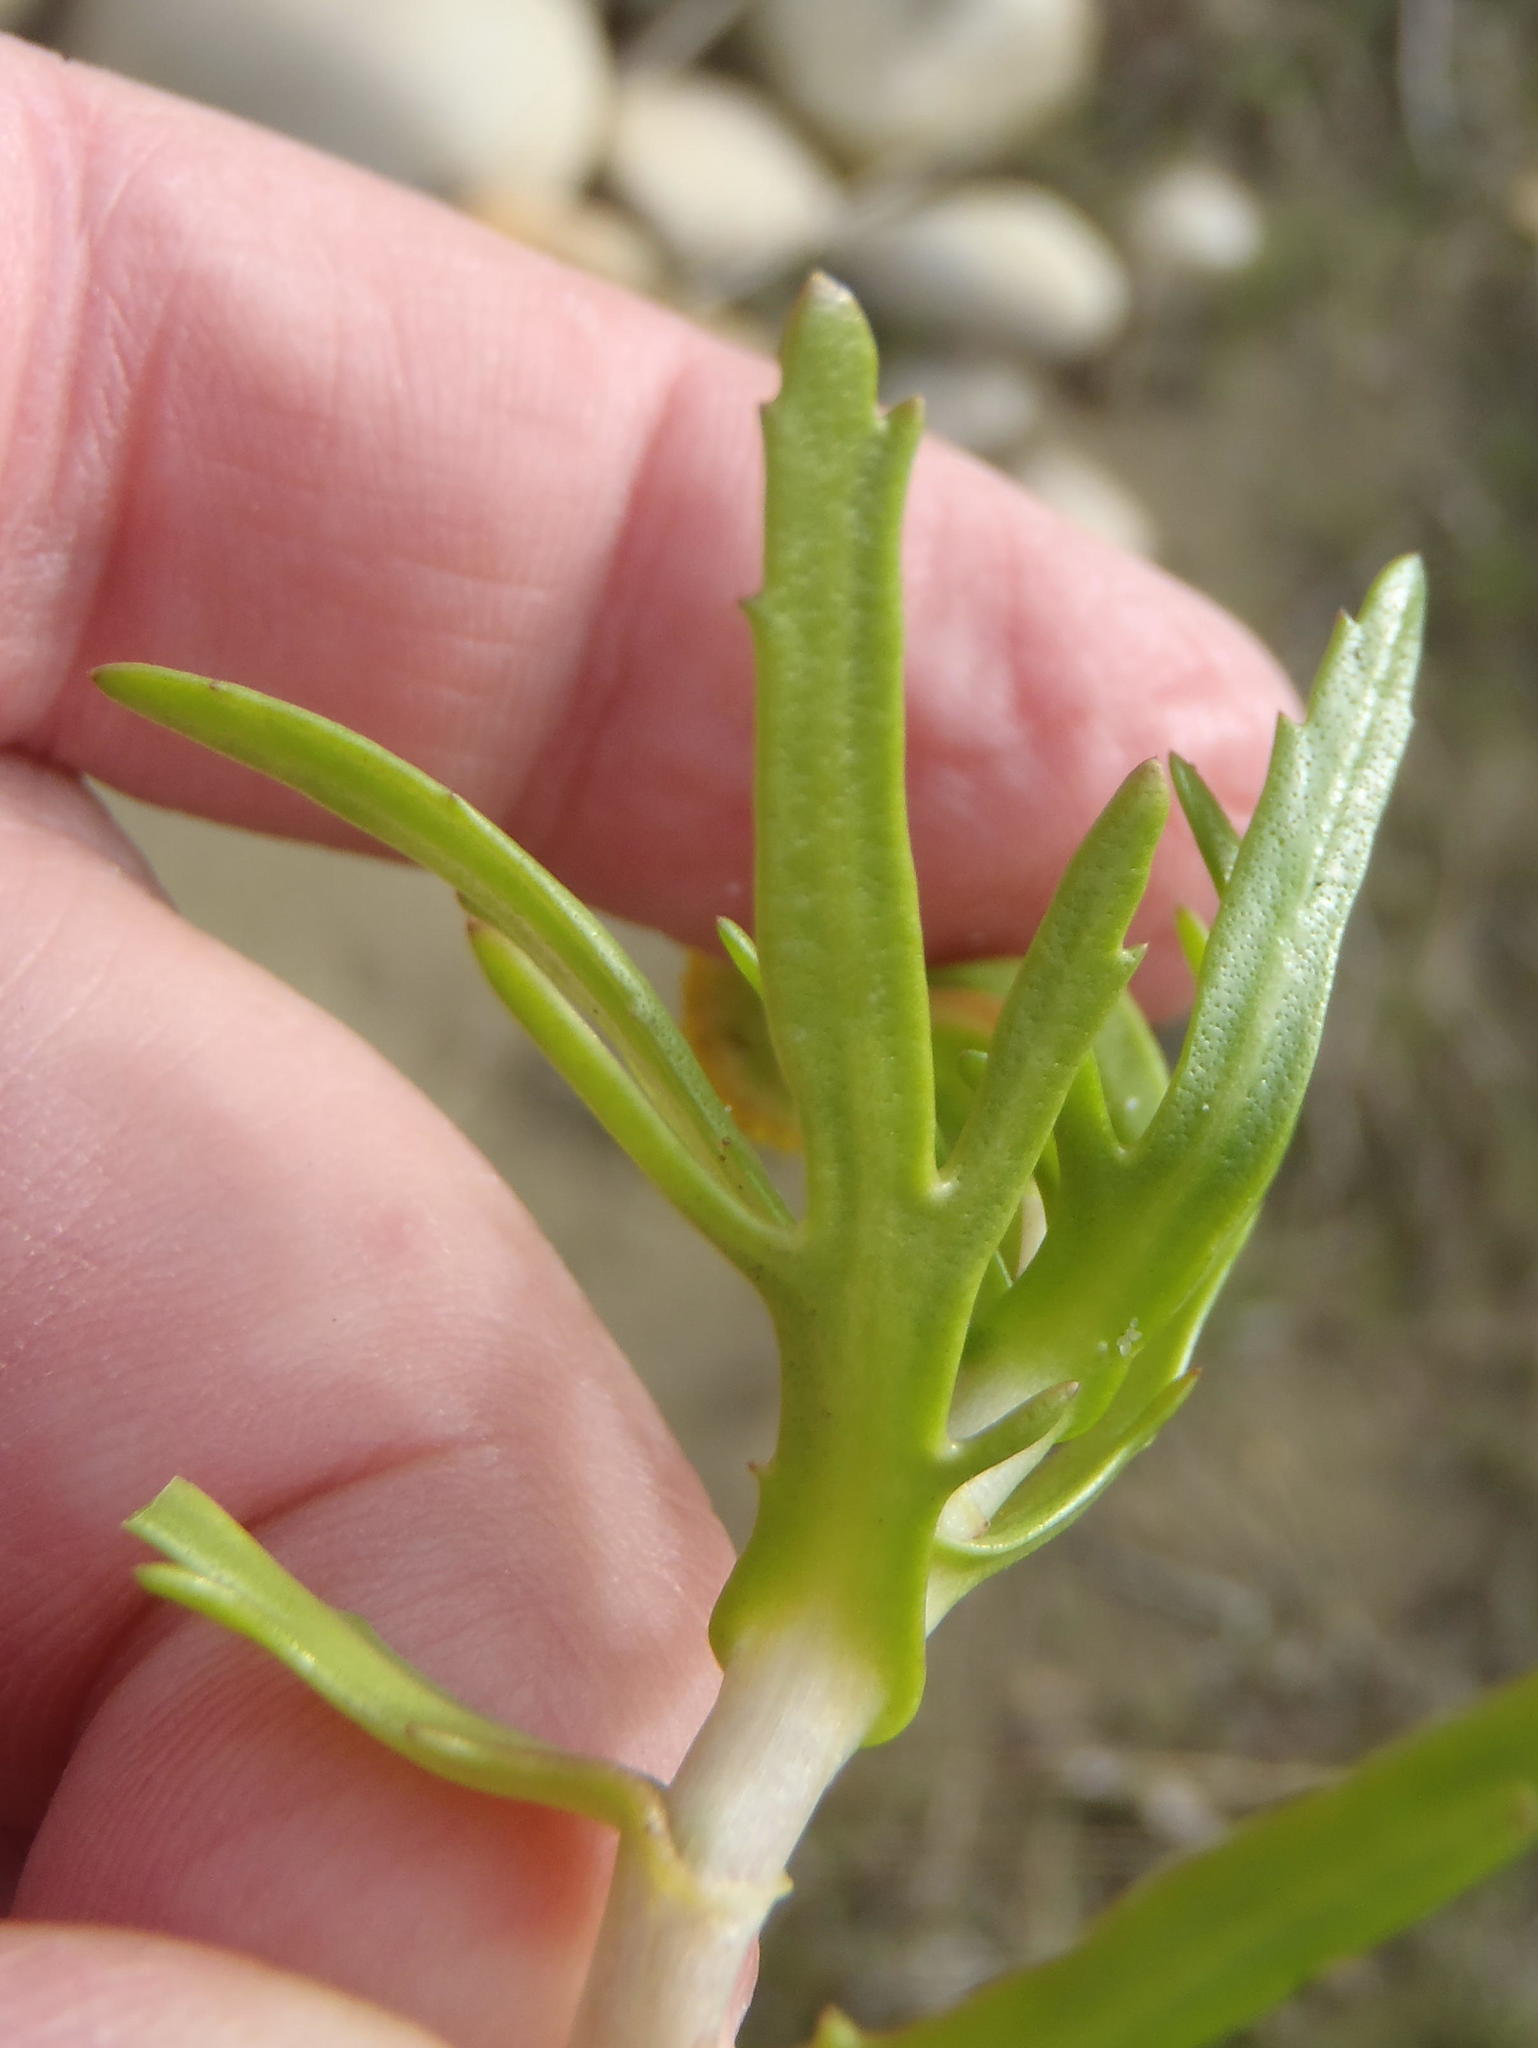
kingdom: Plantae
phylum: Tracheophyta
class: Magnoliopsida
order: Asterales
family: Asteraceae
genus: Cotula
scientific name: Cotula coronopifolia
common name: Buttonweed
